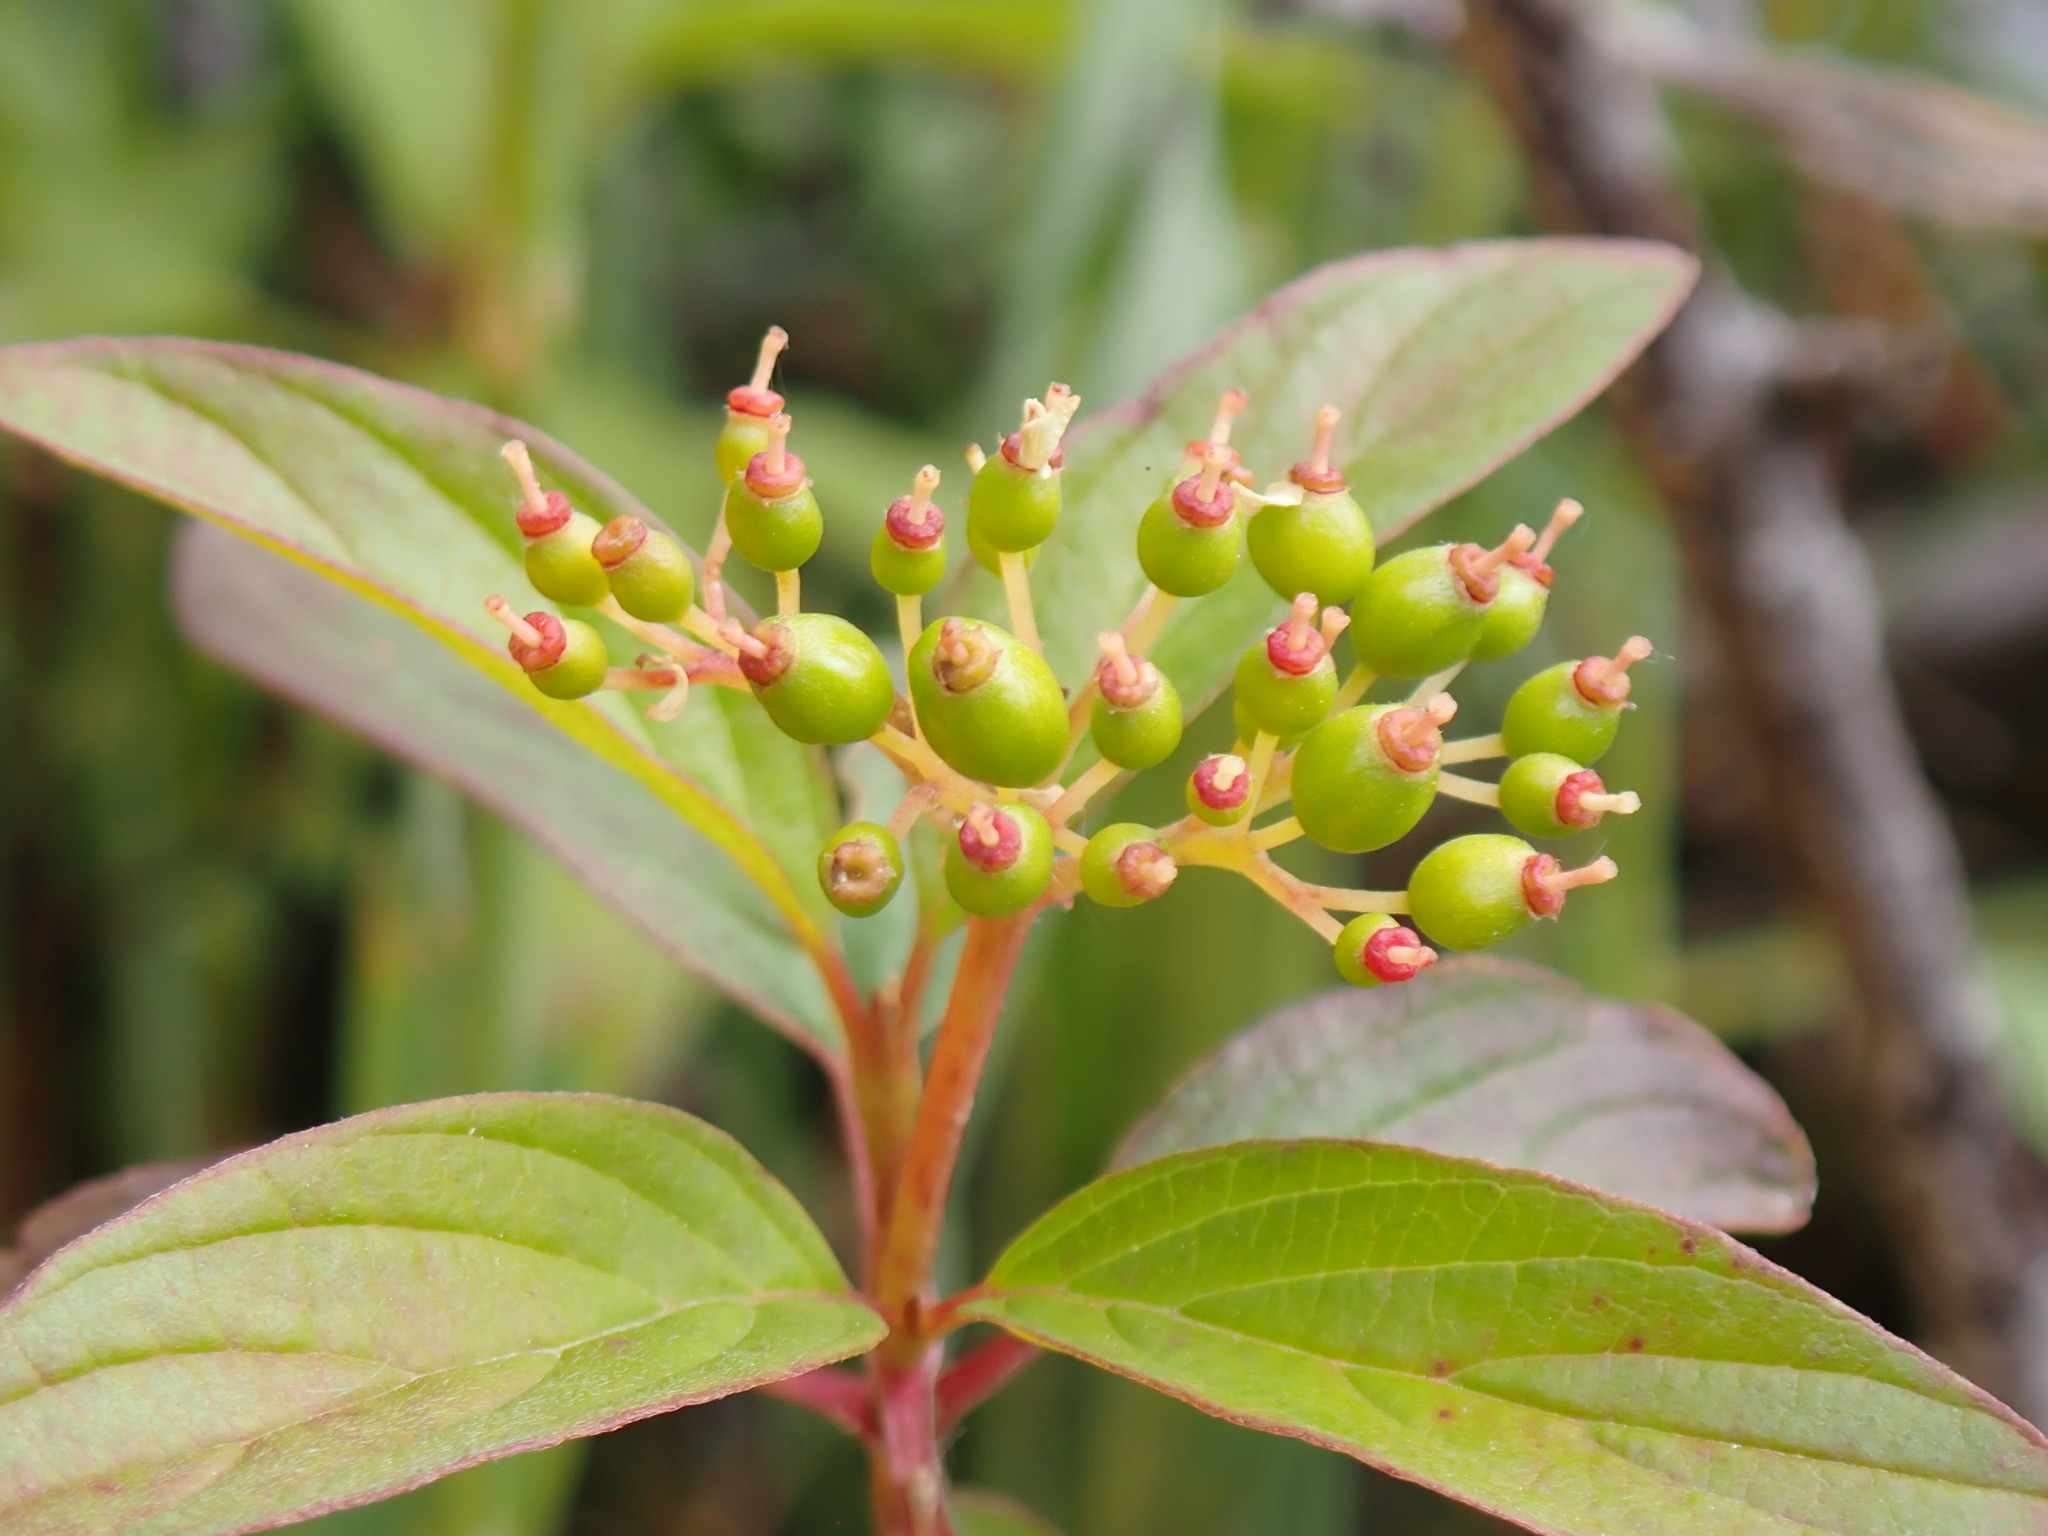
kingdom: Plantae
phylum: Tracheophyta
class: Magnoliopsida
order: Cornales
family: Cornaceae
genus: Cornus
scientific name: Cornus sericea
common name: Red-osier dogwood
